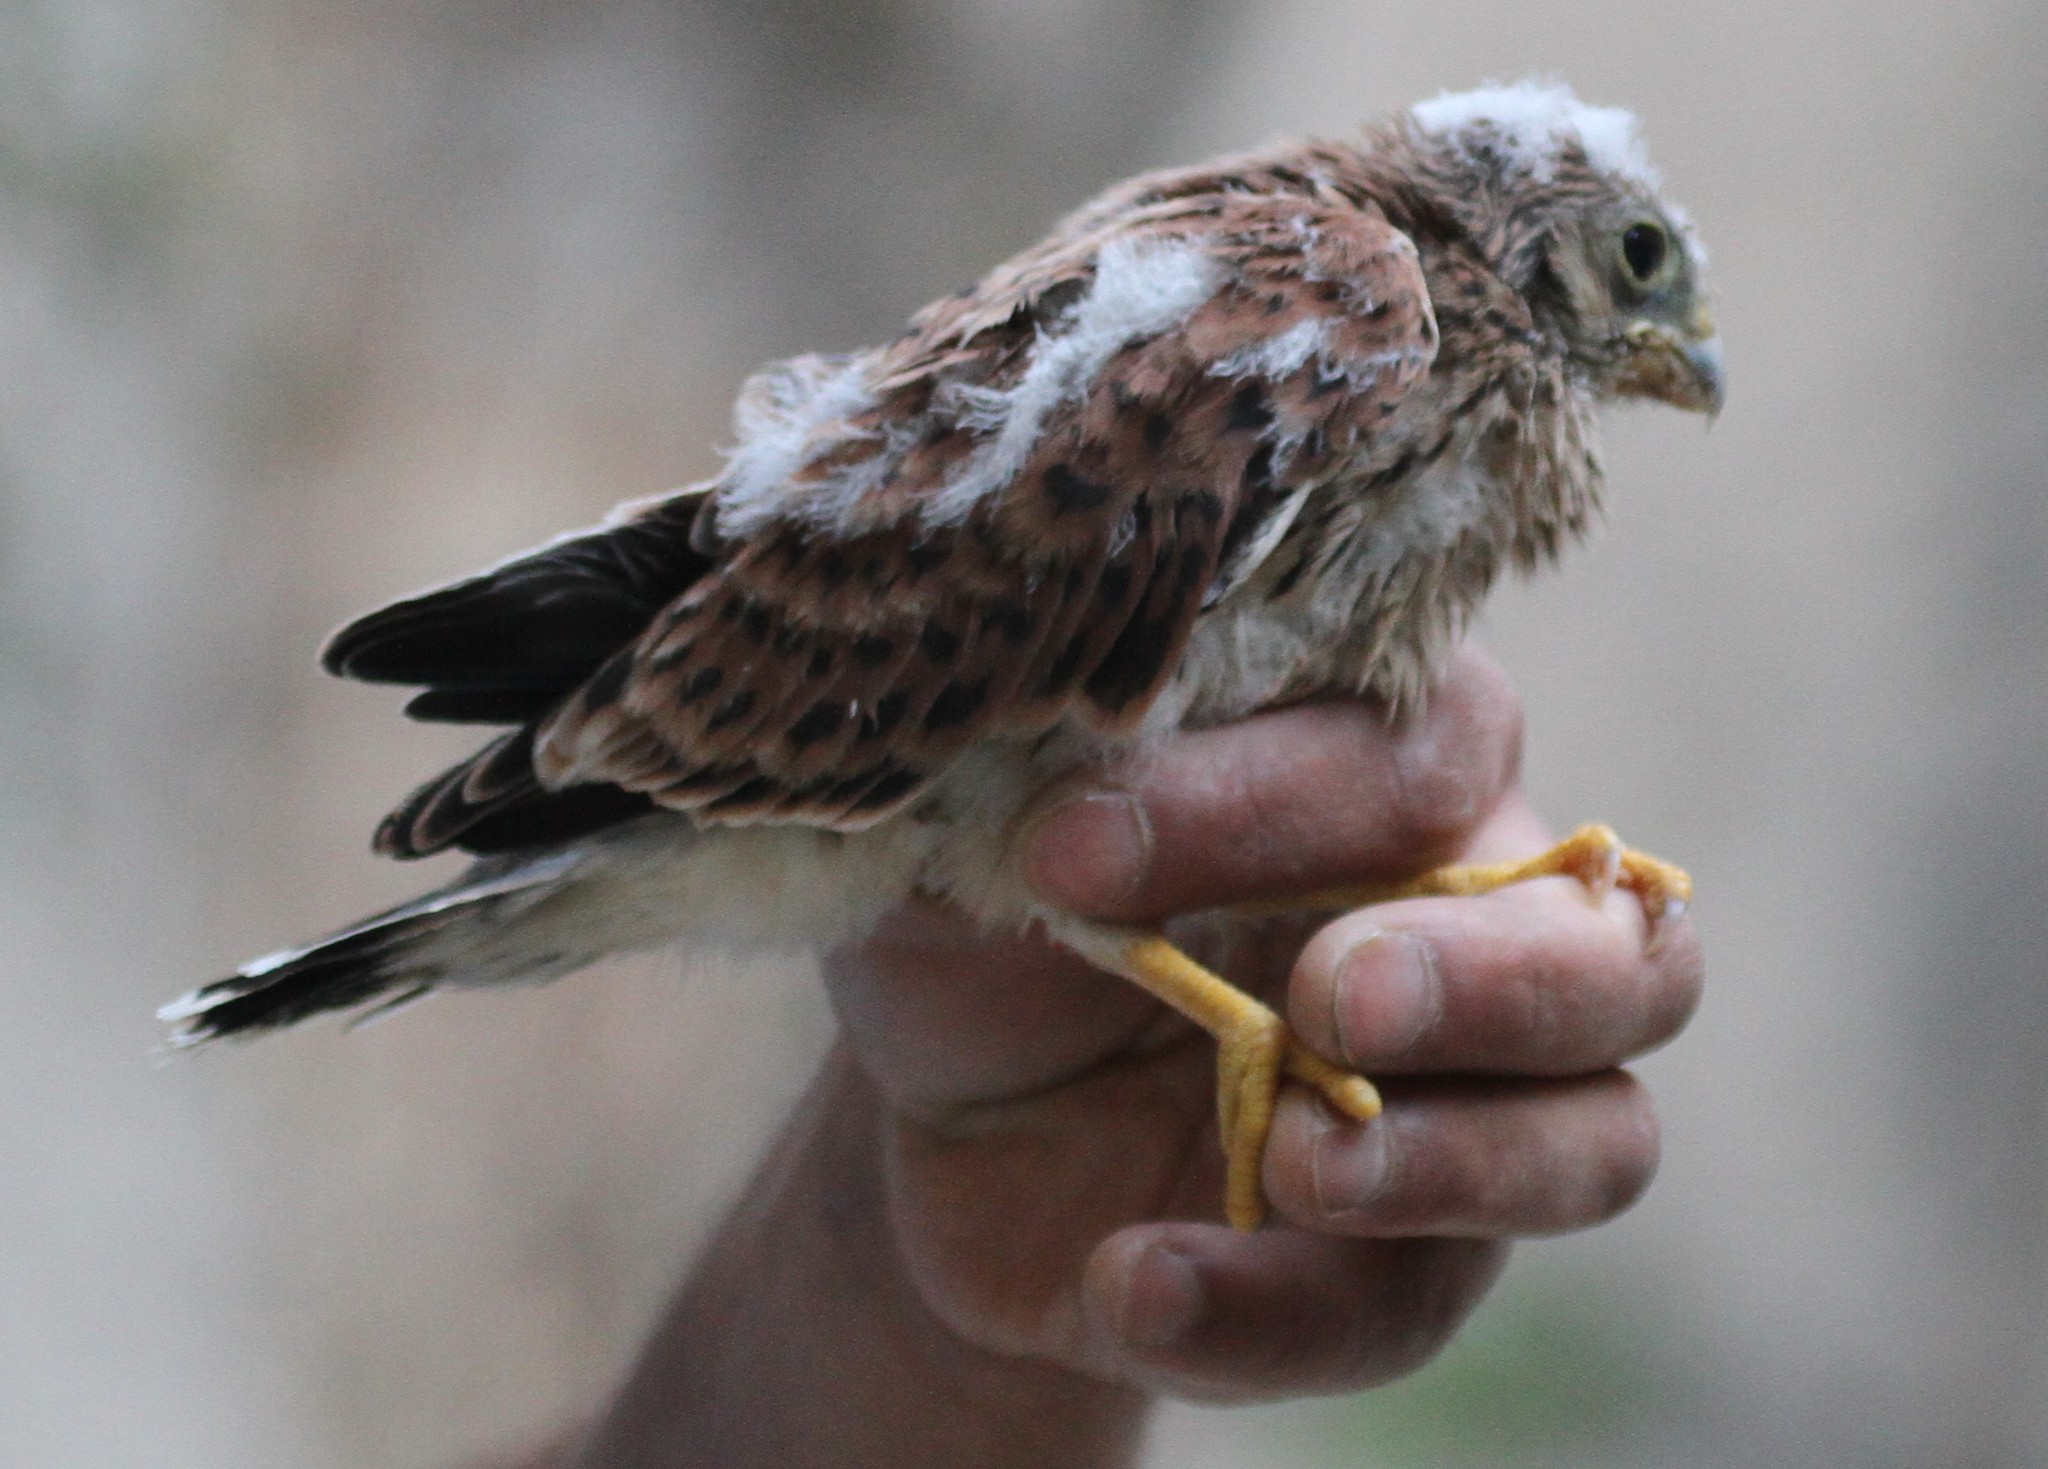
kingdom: Animalia
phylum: Chordata
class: Aves
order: Falconiformes
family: Falconidae
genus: Falco
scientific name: Falco naumanni
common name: Lesser kestrel
